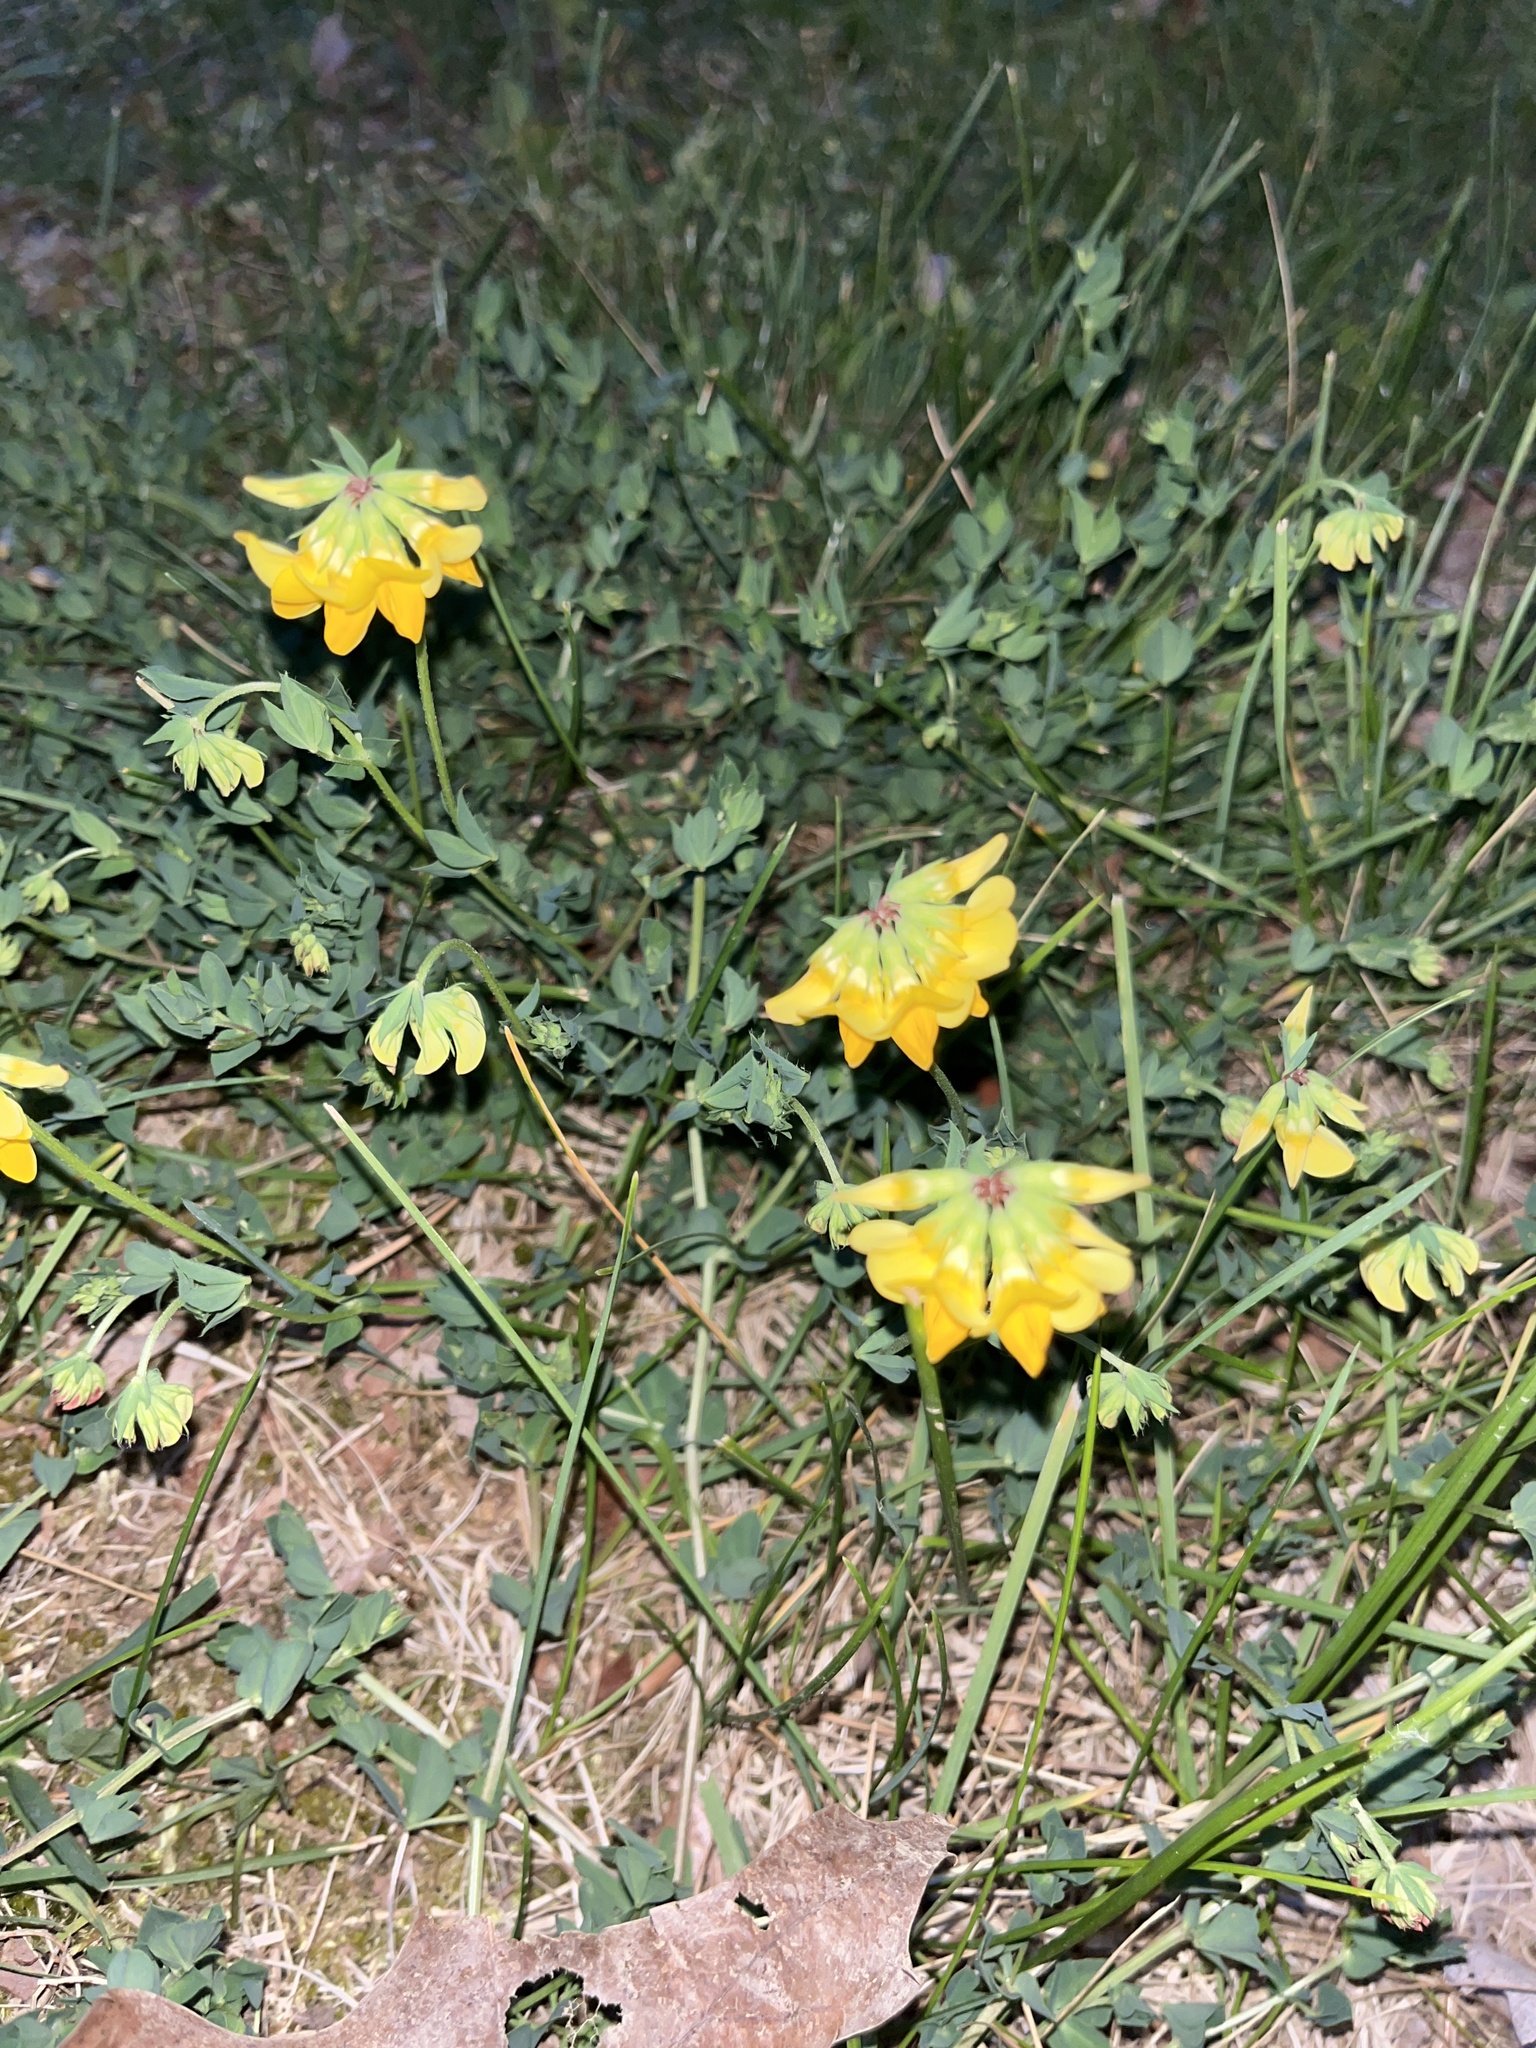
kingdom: Plantae
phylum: Tracheophyta
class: Magnoliopsida
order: Fabales
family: Fabaceae
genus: Lotus
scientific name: Lotus corniculatus
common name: Common bird's-foot-trefoil
